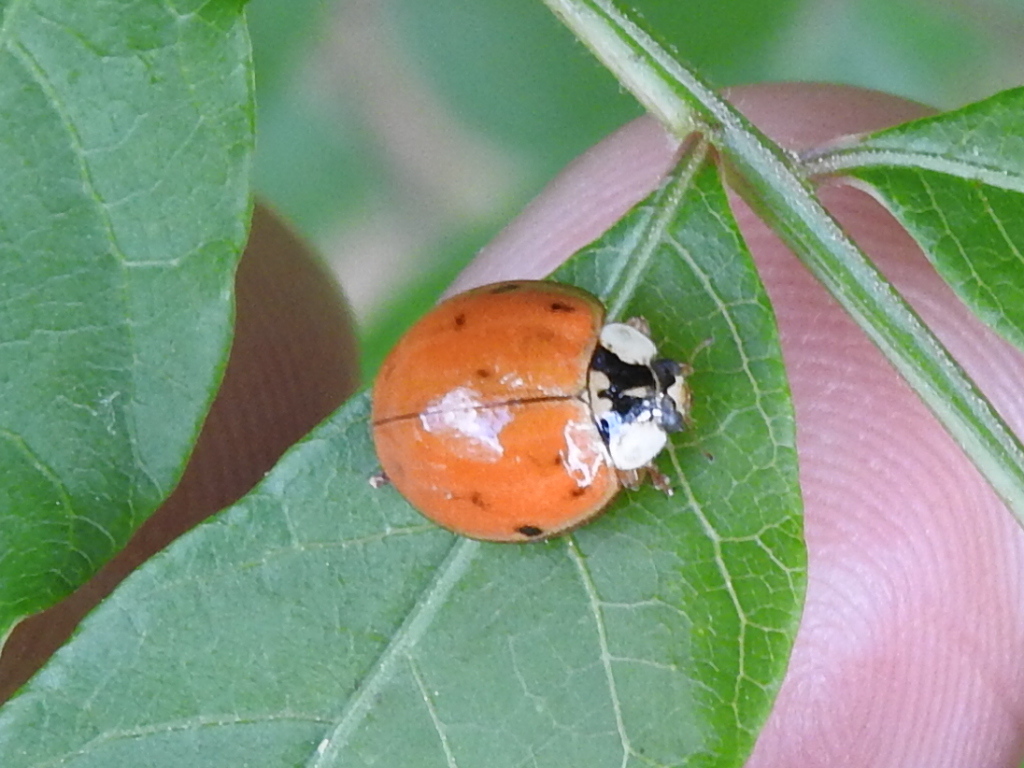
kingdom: Animalia
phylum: Arthropoda
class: Insecta
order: Coleoptera
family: Coccinellidae
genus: Harmonia
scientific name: Harmonia axyridis
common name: Harlequin ladybird
